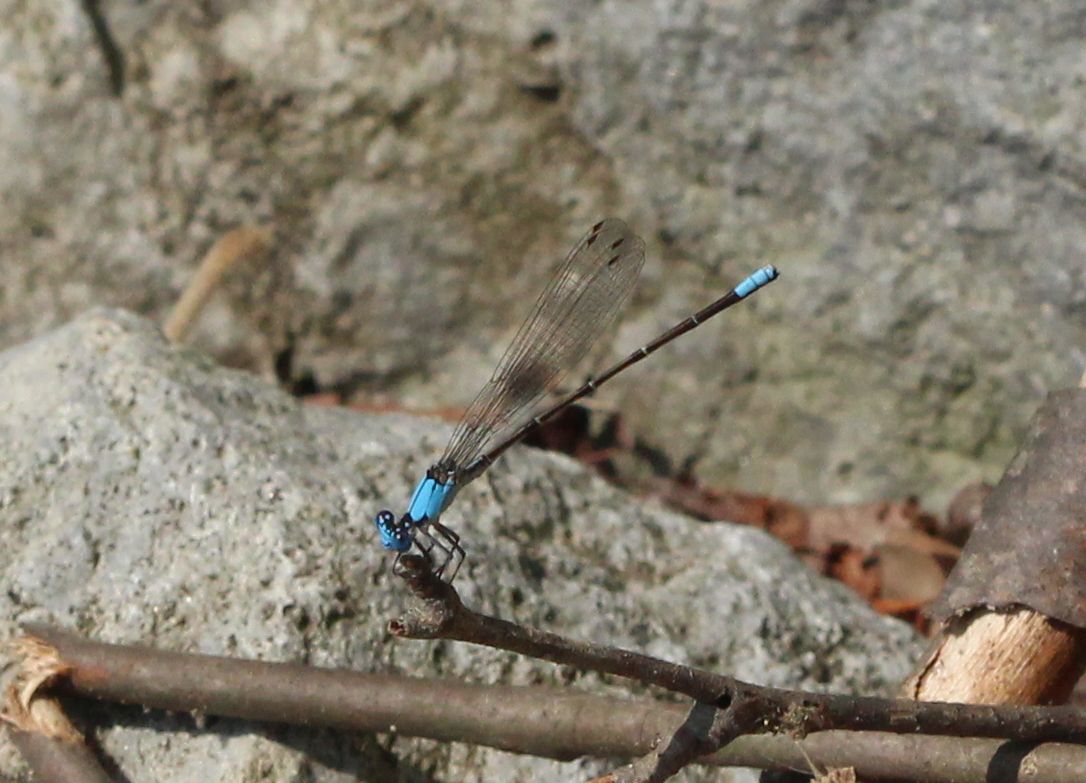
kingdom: Animalia
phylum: Arthropoda
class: Insecta
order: Odonata
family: Coenagrionidae
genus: Argia
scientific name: Argia apicalis
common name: Blue-fronted dancer
